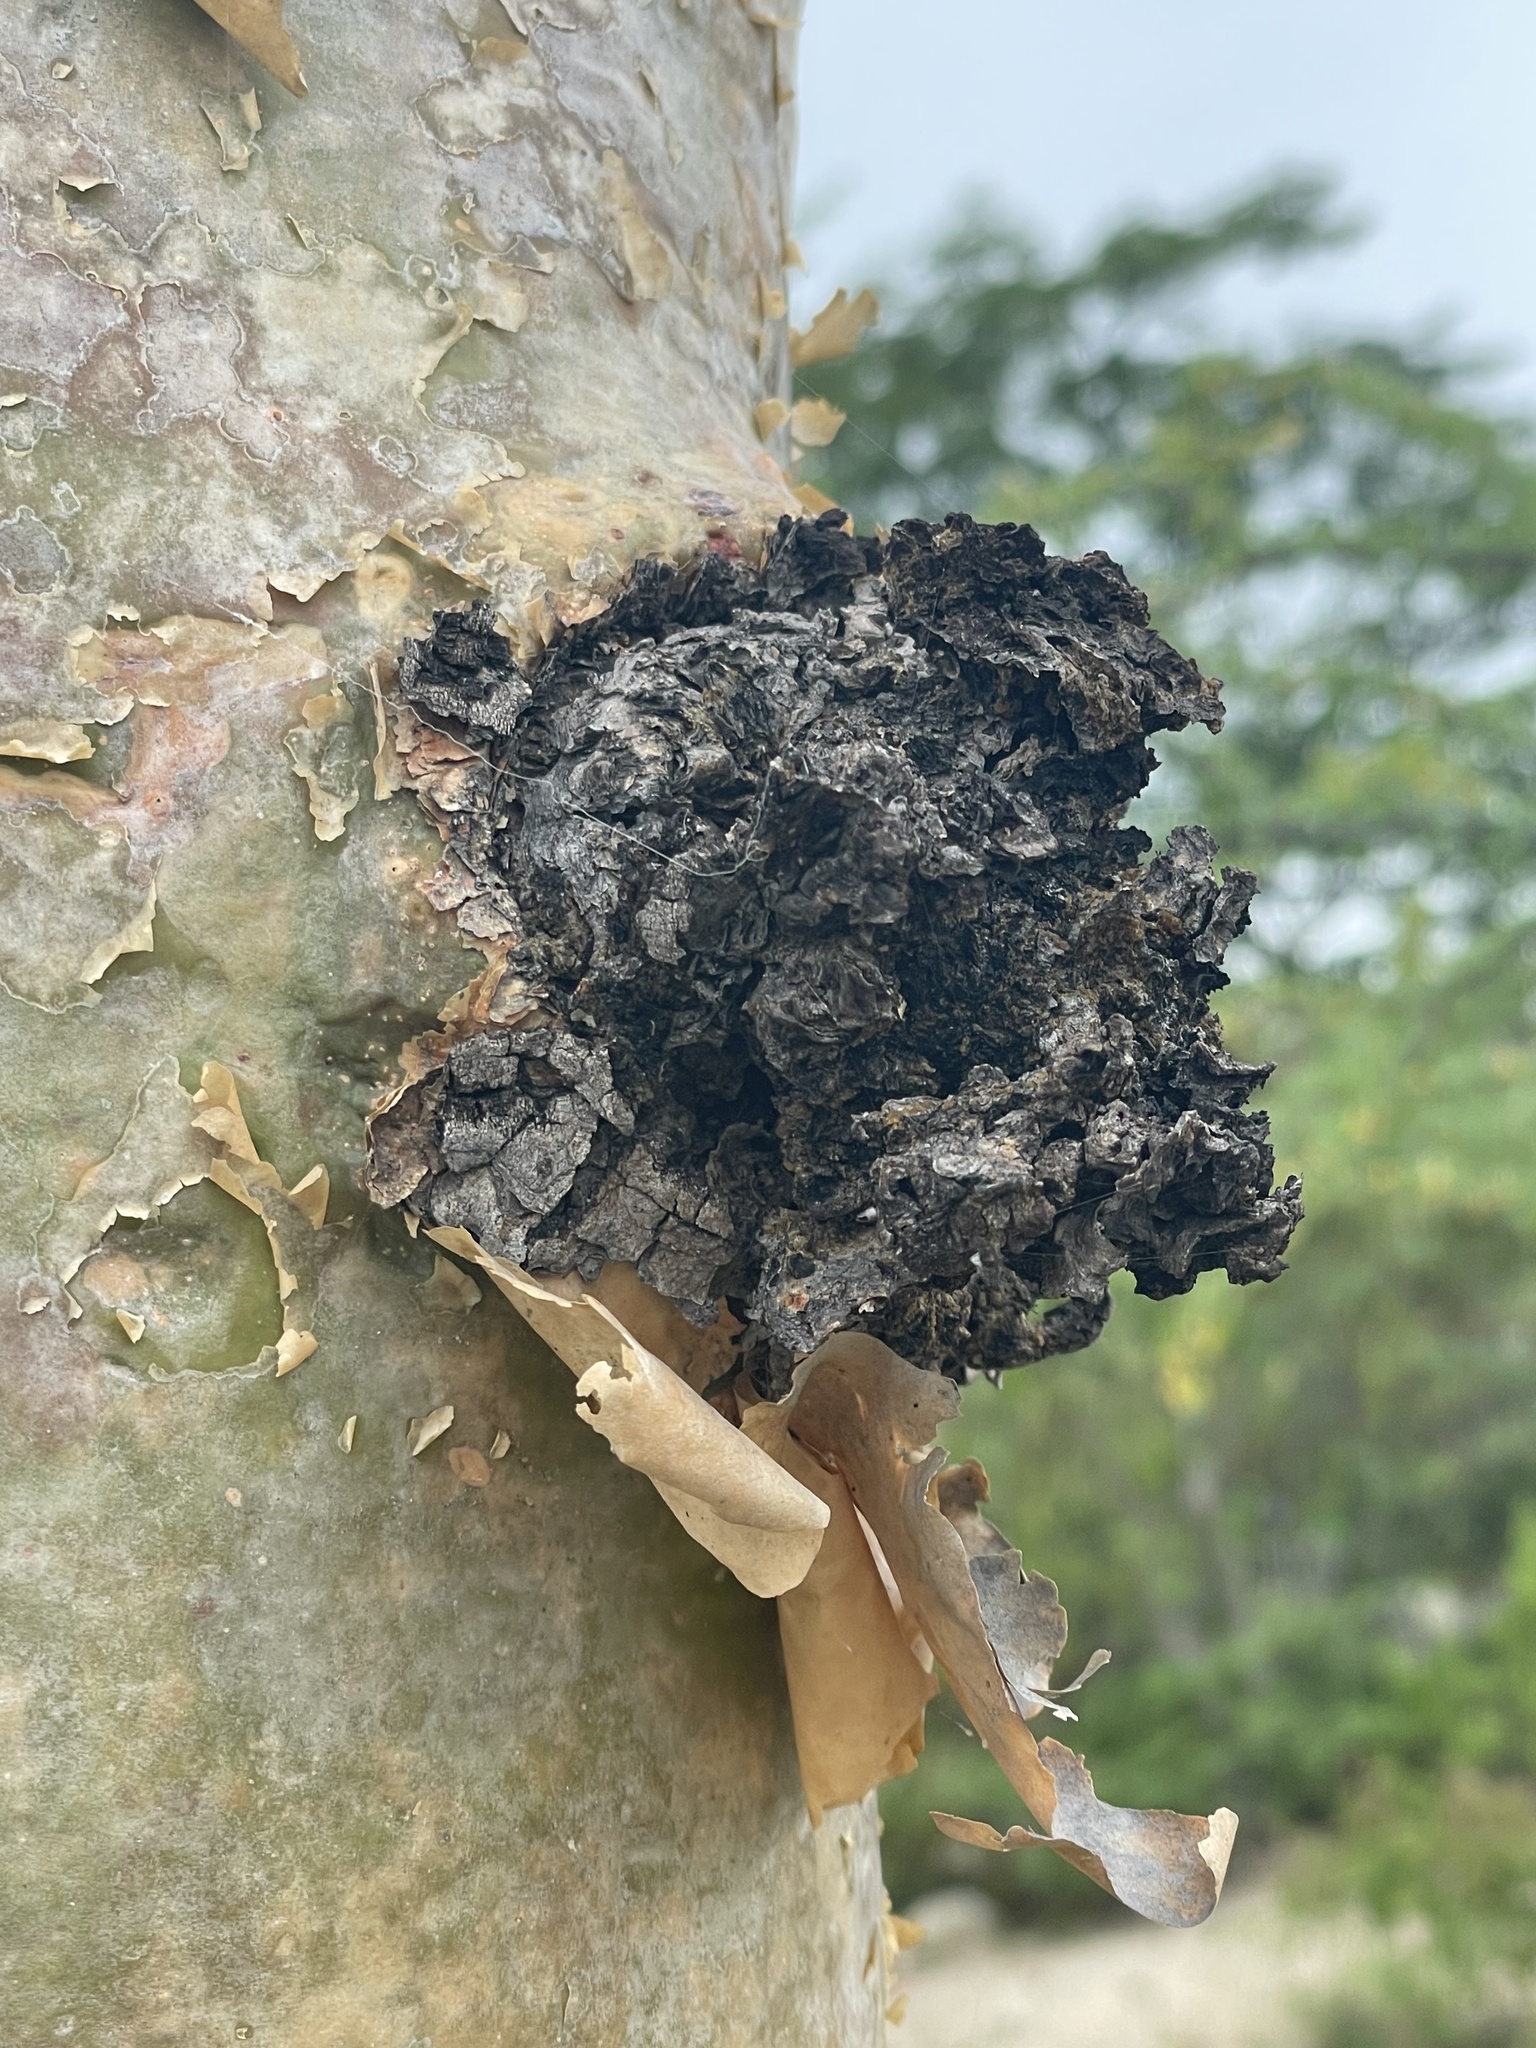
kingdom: Plantae
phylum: Tracheophyta
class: Magnoliopsida
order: Sapindales
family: Burseraceae
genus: Bursera
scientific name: Bursera microphylla
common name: Elephant tree
